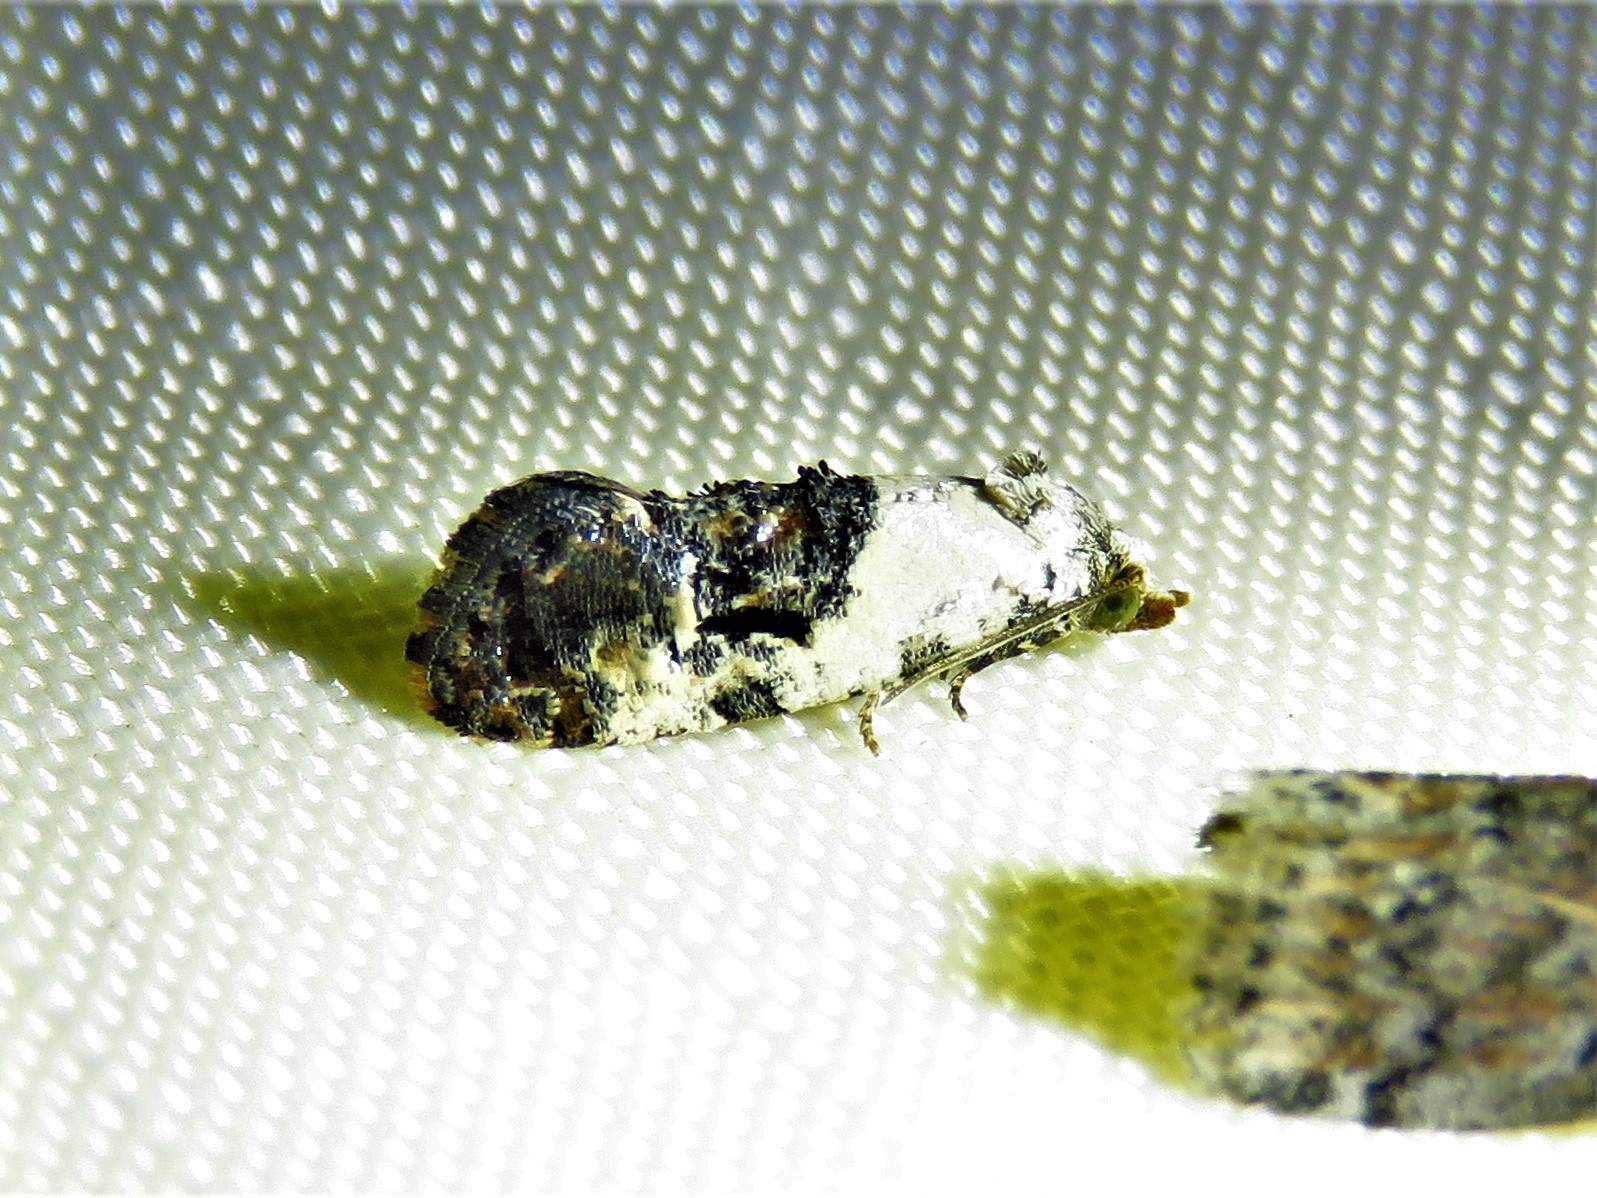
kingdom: Animalia
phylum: Arthropoda
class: Insecta
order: Lepidoptera
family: Tortricidae
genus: Rudenia
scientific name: Rudenia leguminana
